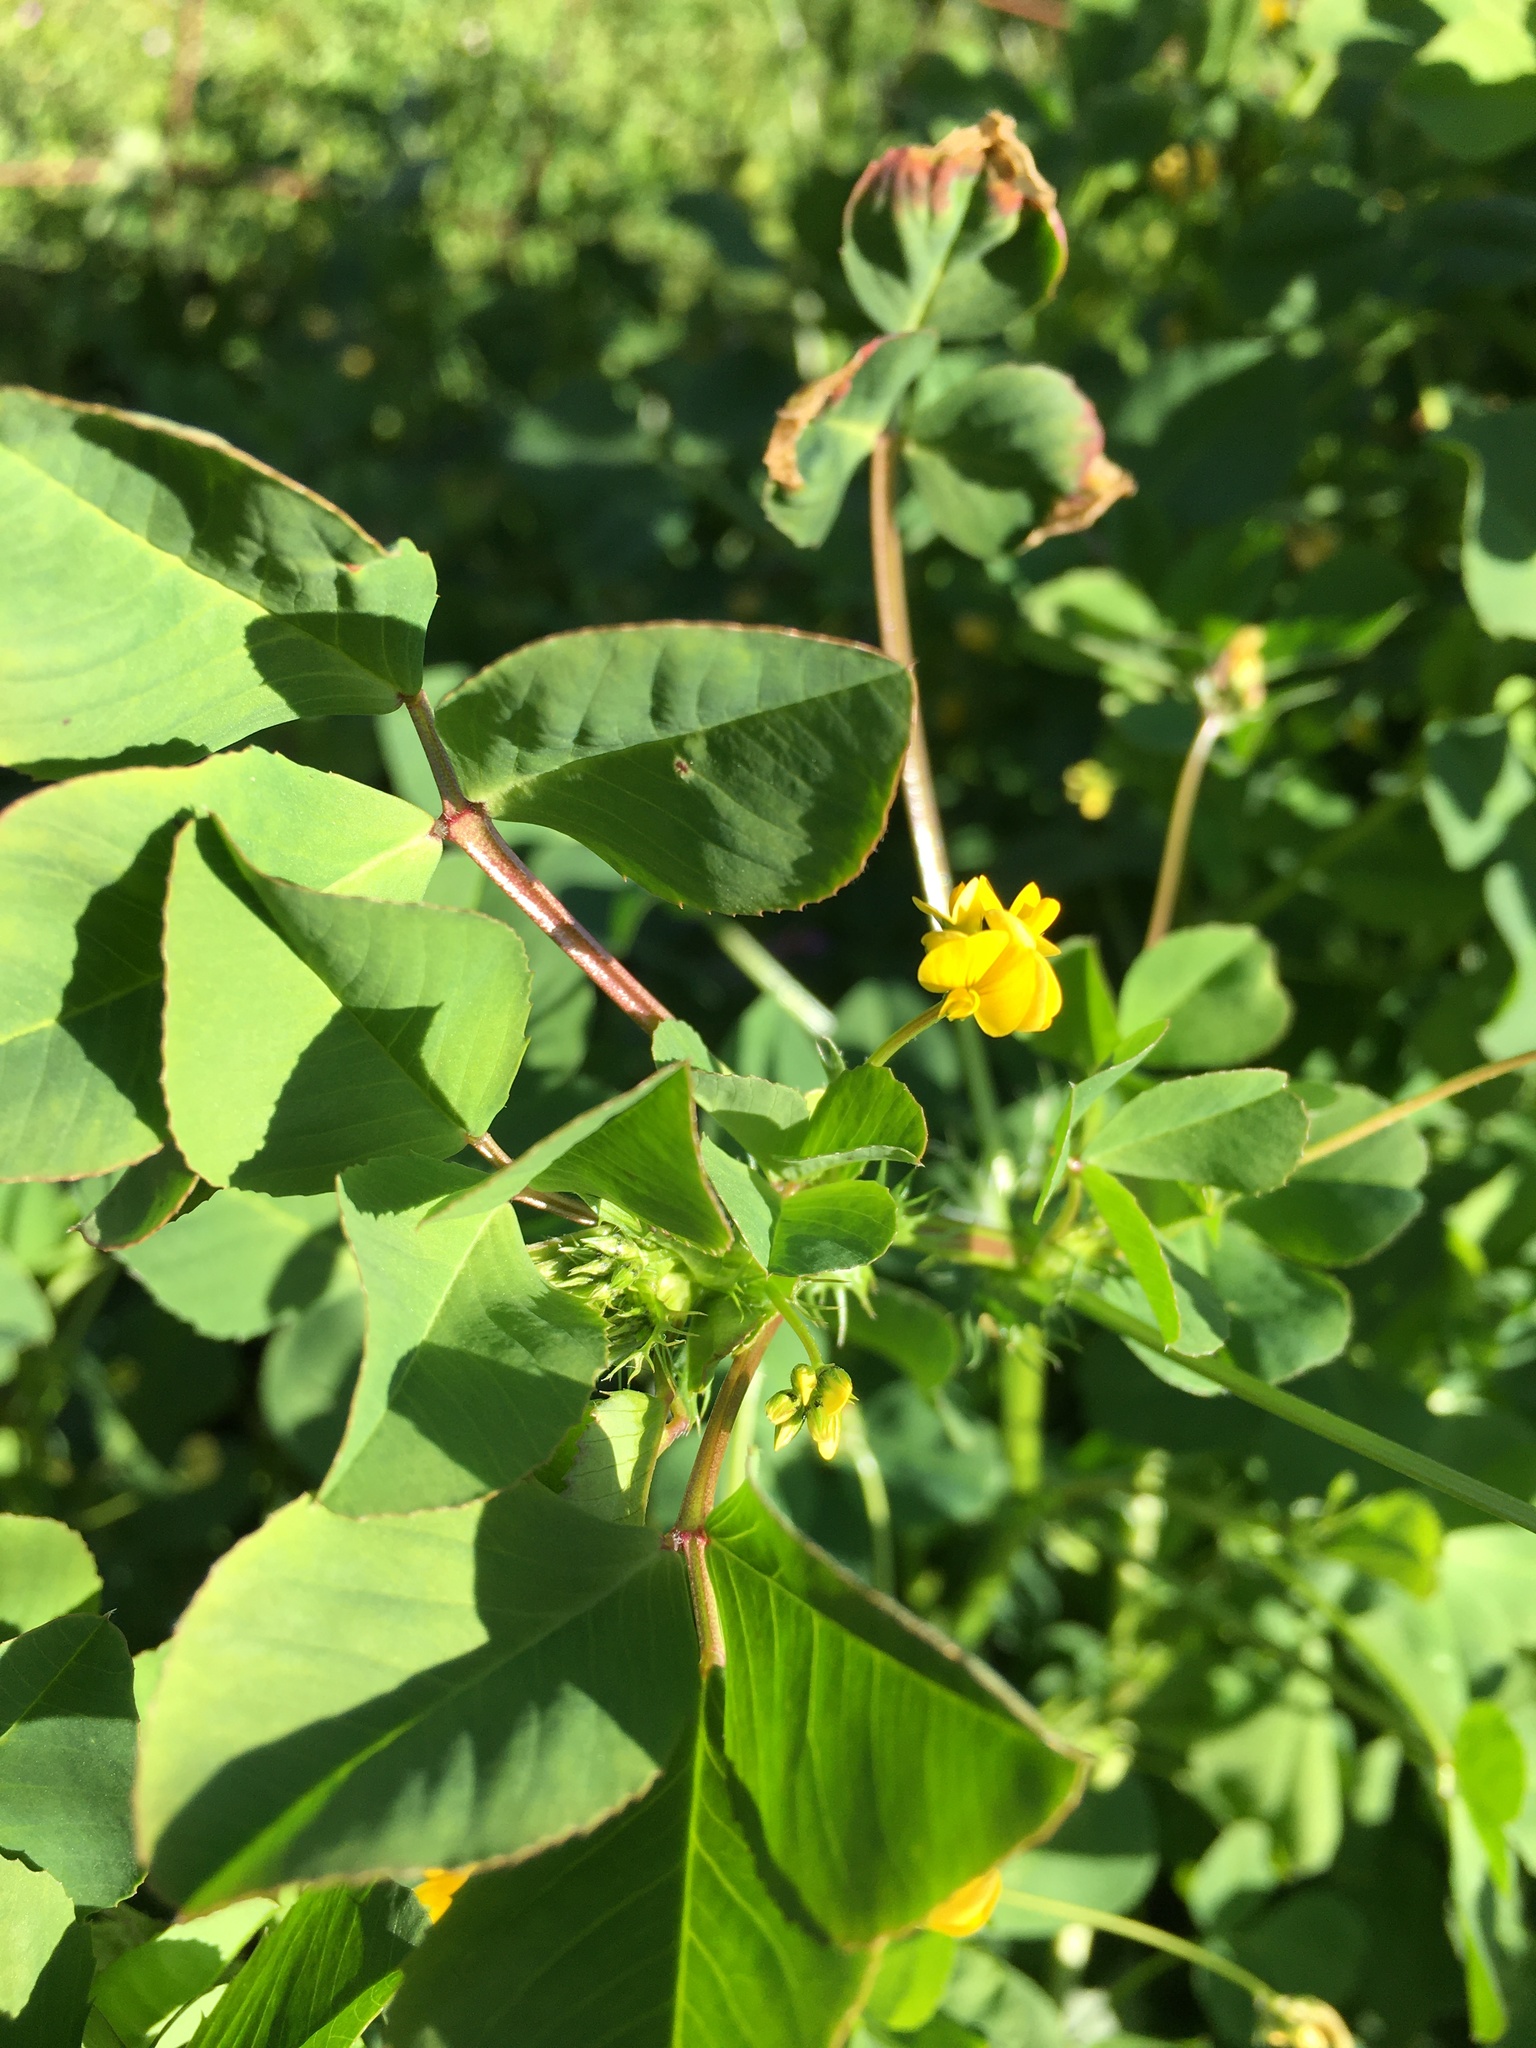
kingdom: Plantae
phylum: Tracheophyta
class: Magnoliopsida
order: Fabales
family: Fabaceae
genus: Medicago
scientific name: Medicago polymorpha
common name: Burclover
